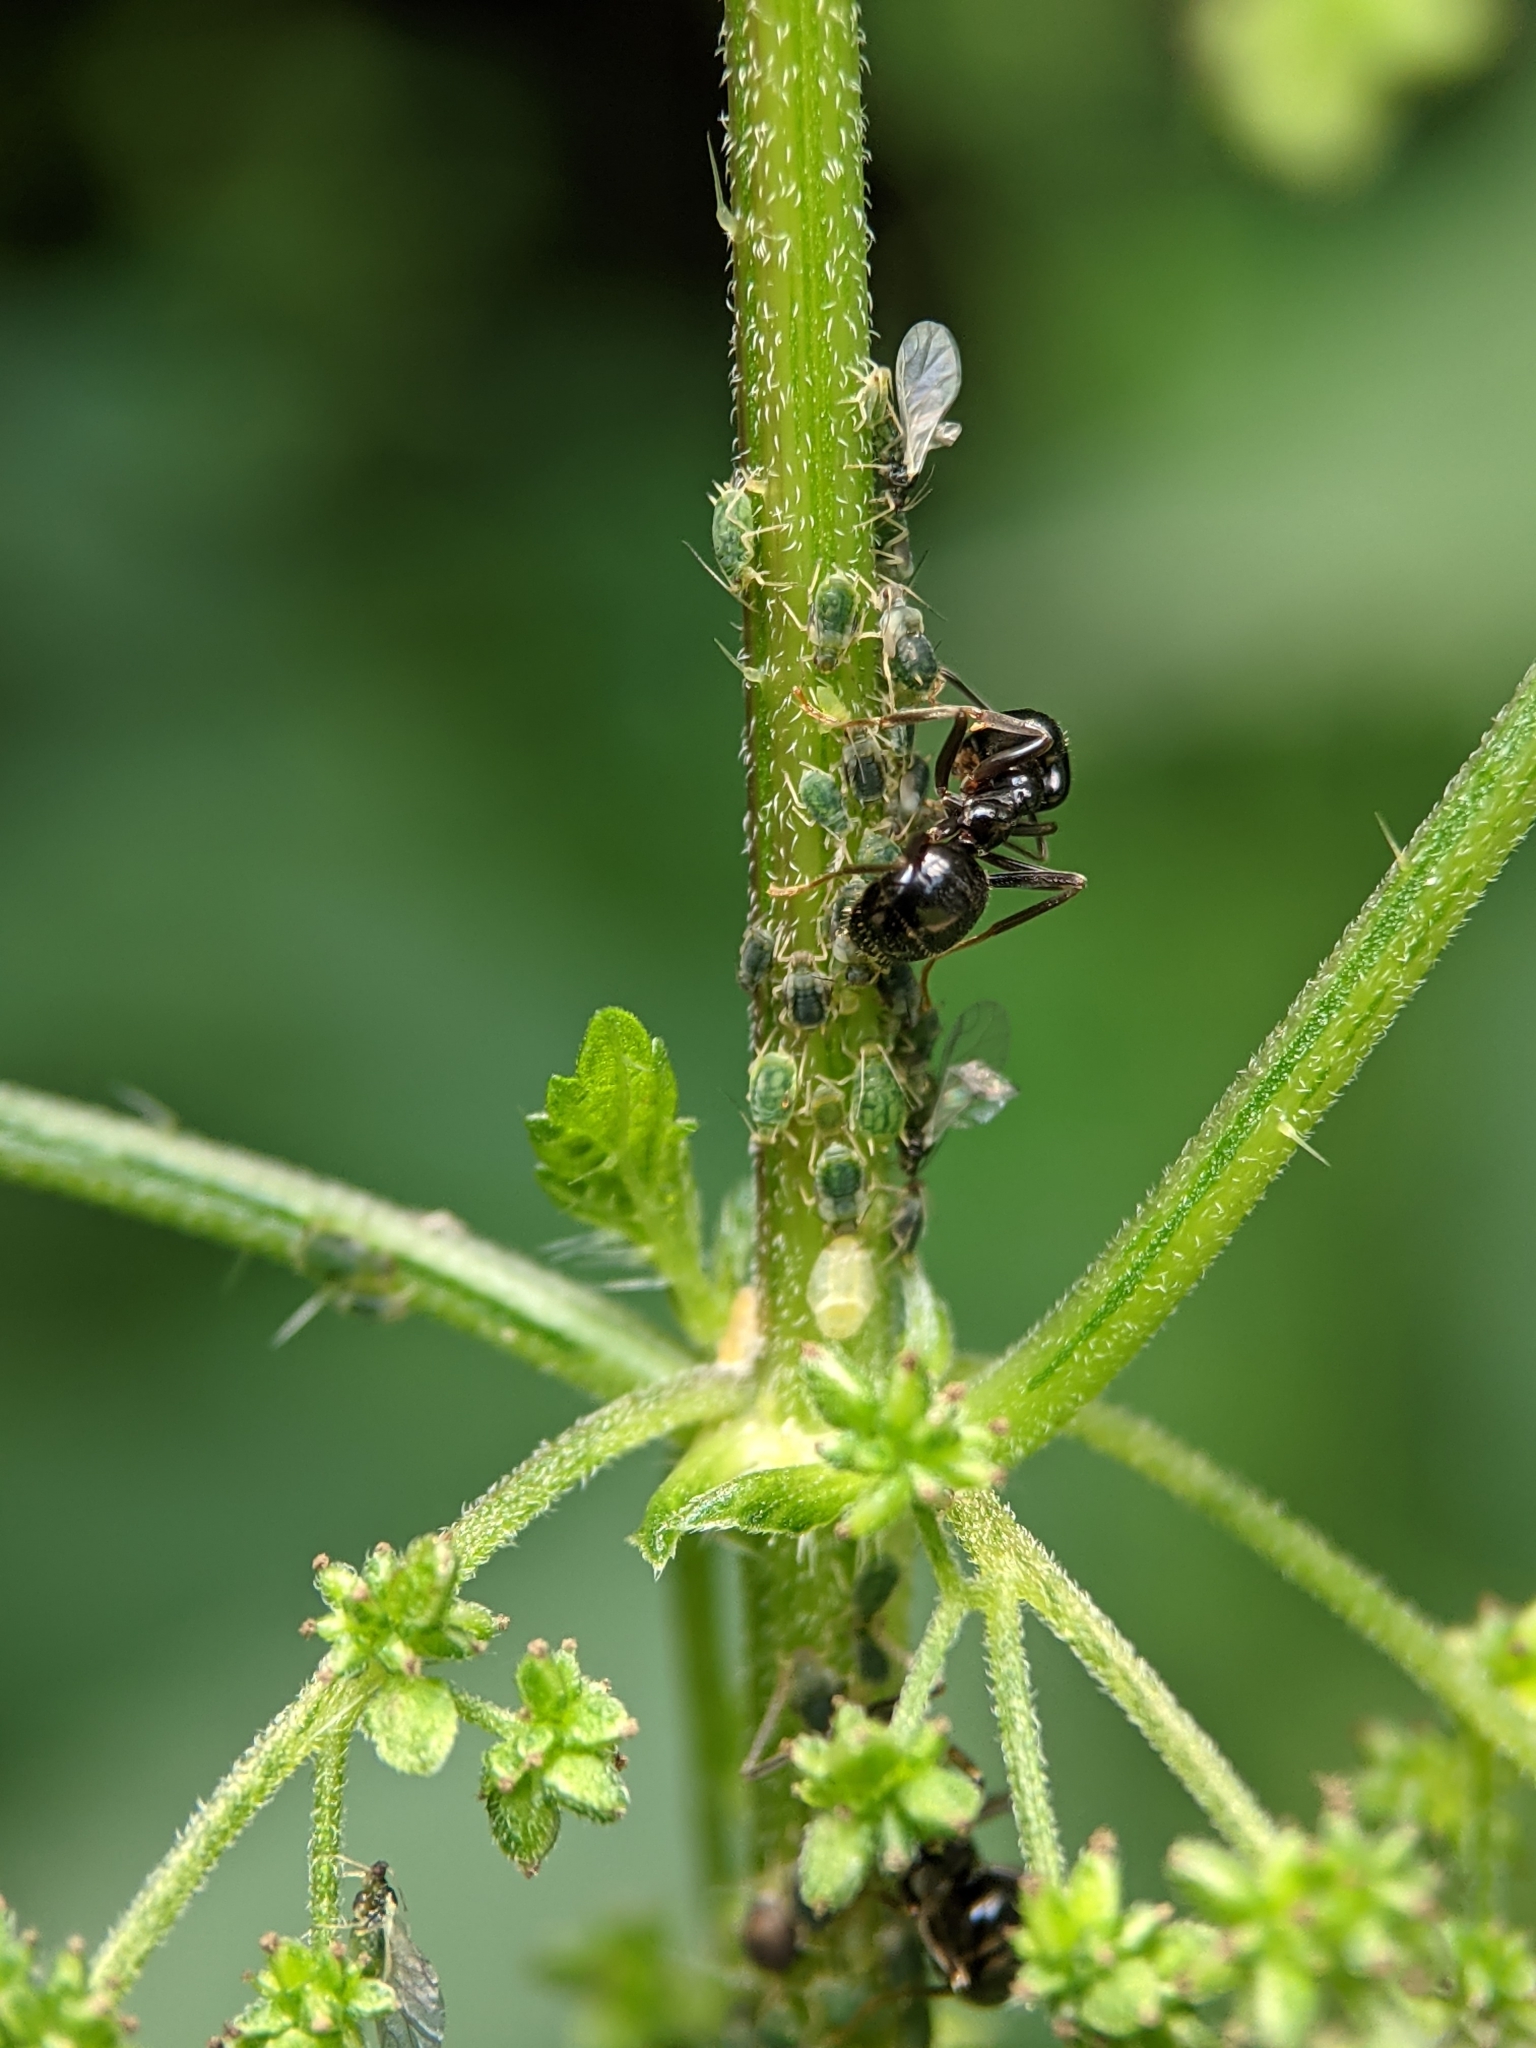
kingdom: Animalia
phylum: Arthropoda
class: Insecta
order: Hymenoptera
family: Formicidae
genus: Lasius
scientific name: Lasius fuliginosus
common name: Jet ant
